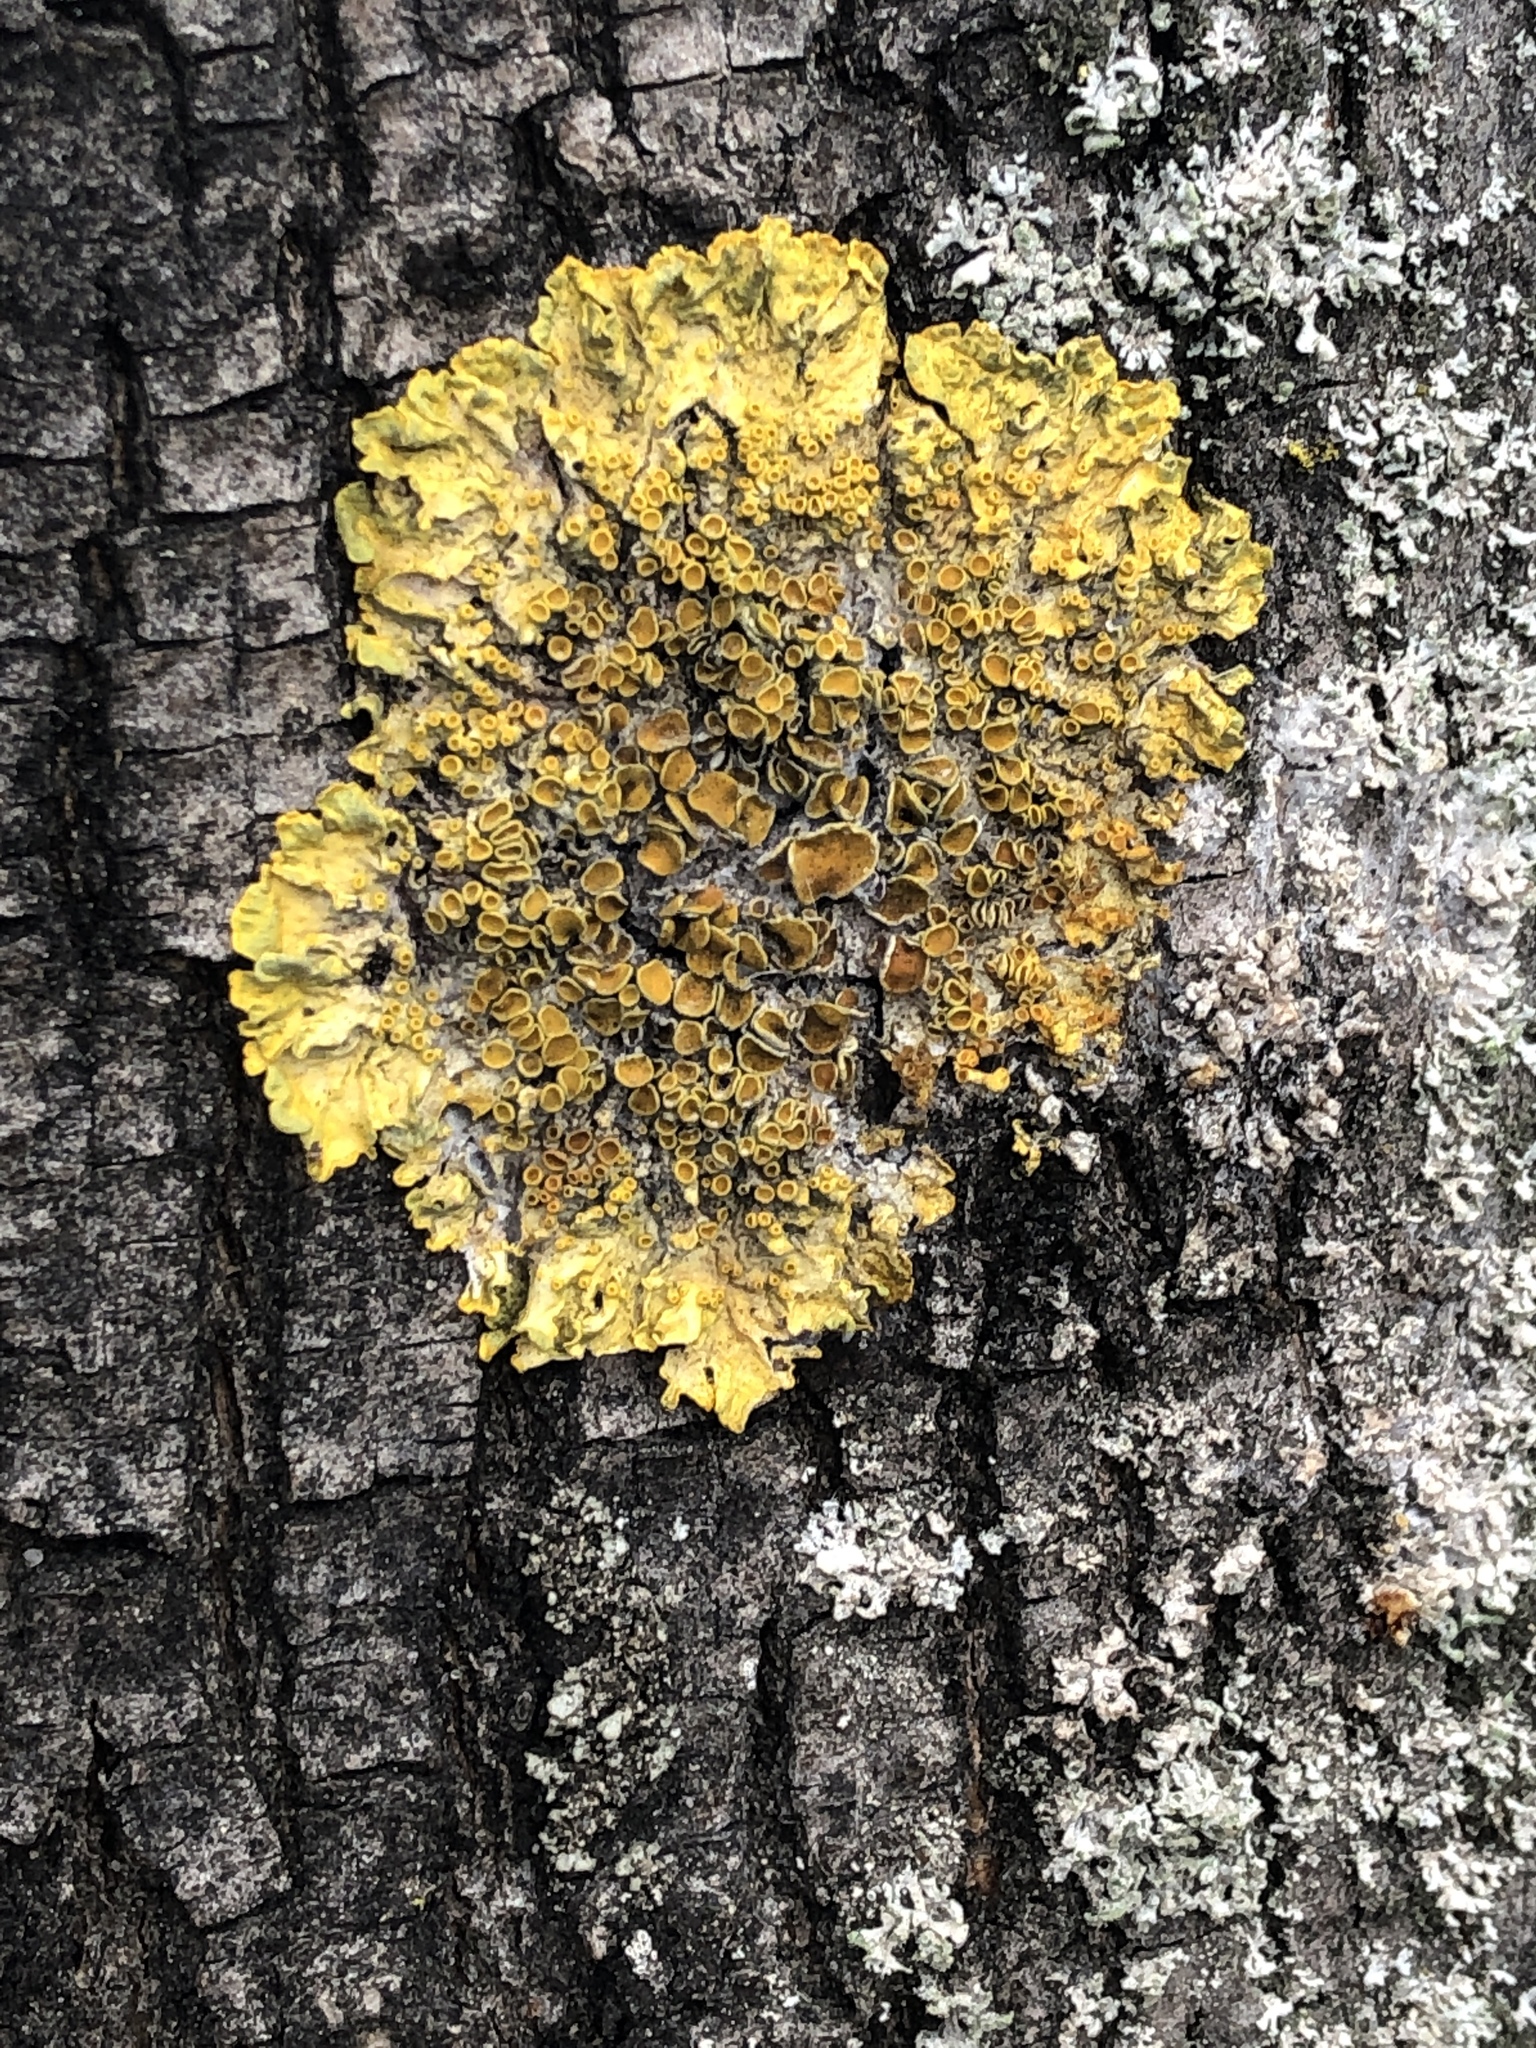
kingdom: Fungi
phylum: Ascomycota
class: Lecanoromycetes
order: Teloschistales
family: Teloschistaceae
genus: Xanthoria
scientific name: Xanthoria parietina
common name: Common orange lichen
